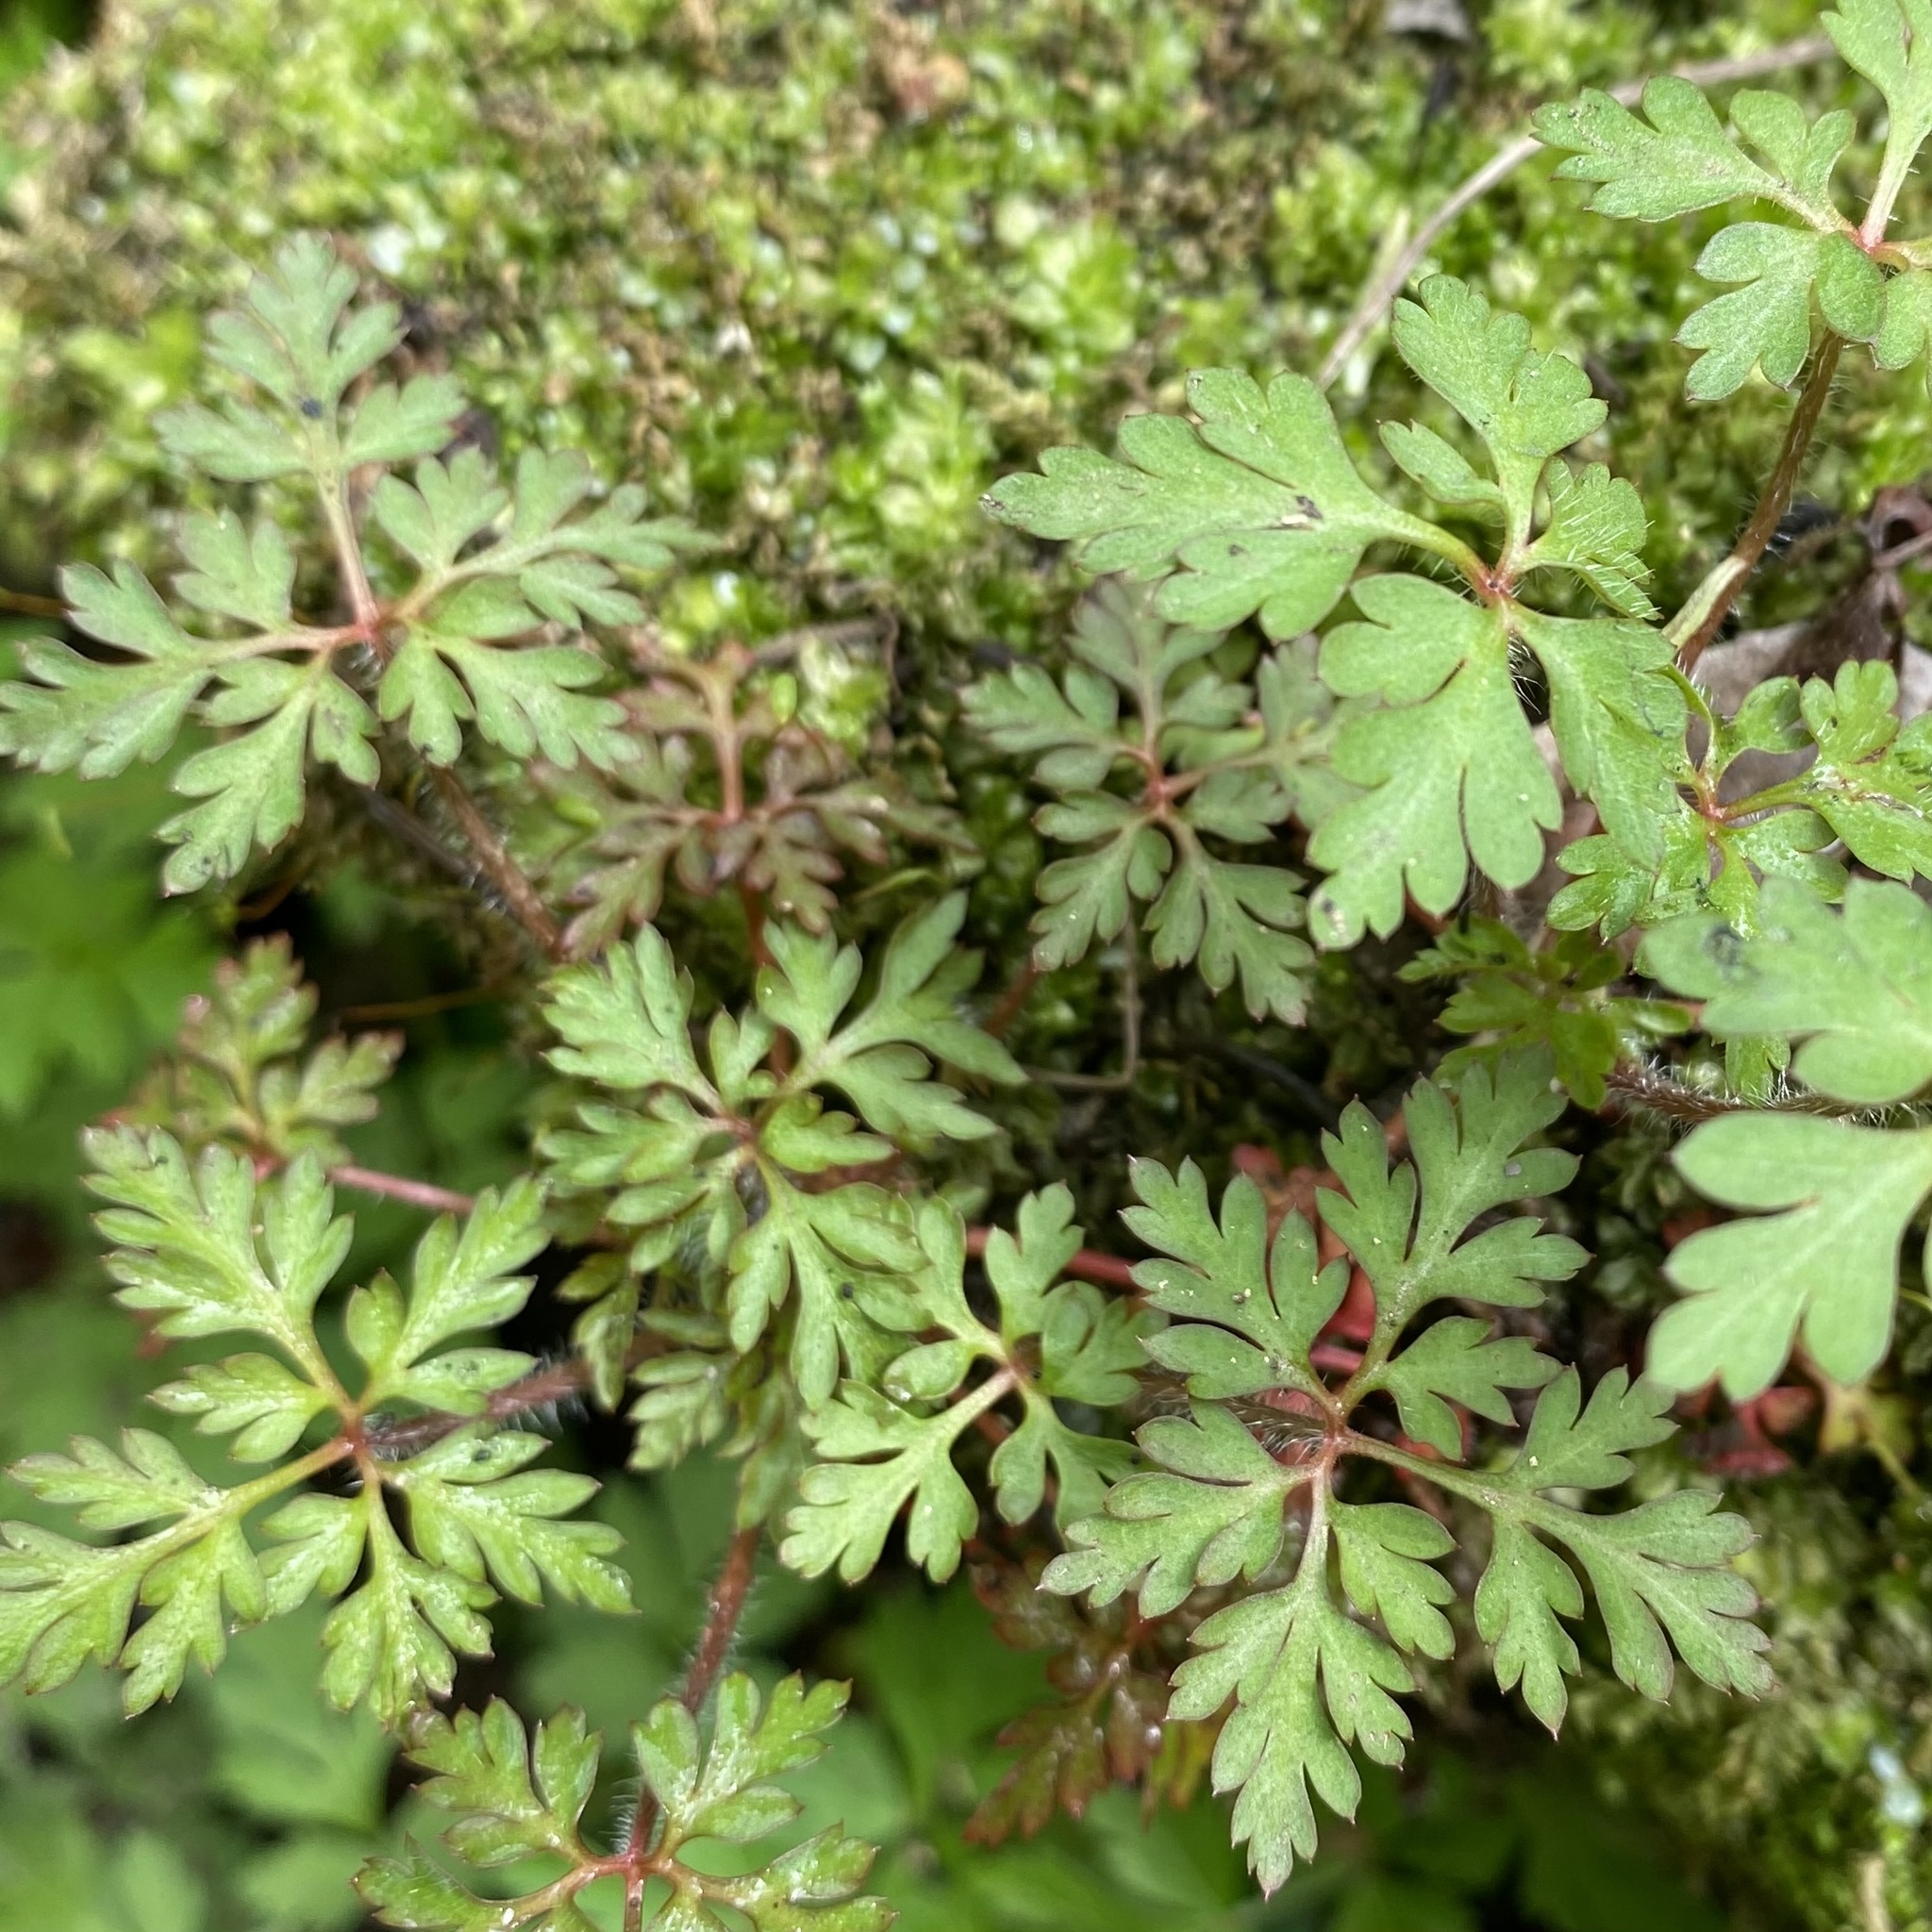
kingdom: Plantae
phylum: Tracheophyta
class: Magnoliopsida
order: Geraniales
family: Geraniaceae
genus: Geranium
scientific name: Geranium robertianum
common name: Herb-robert
